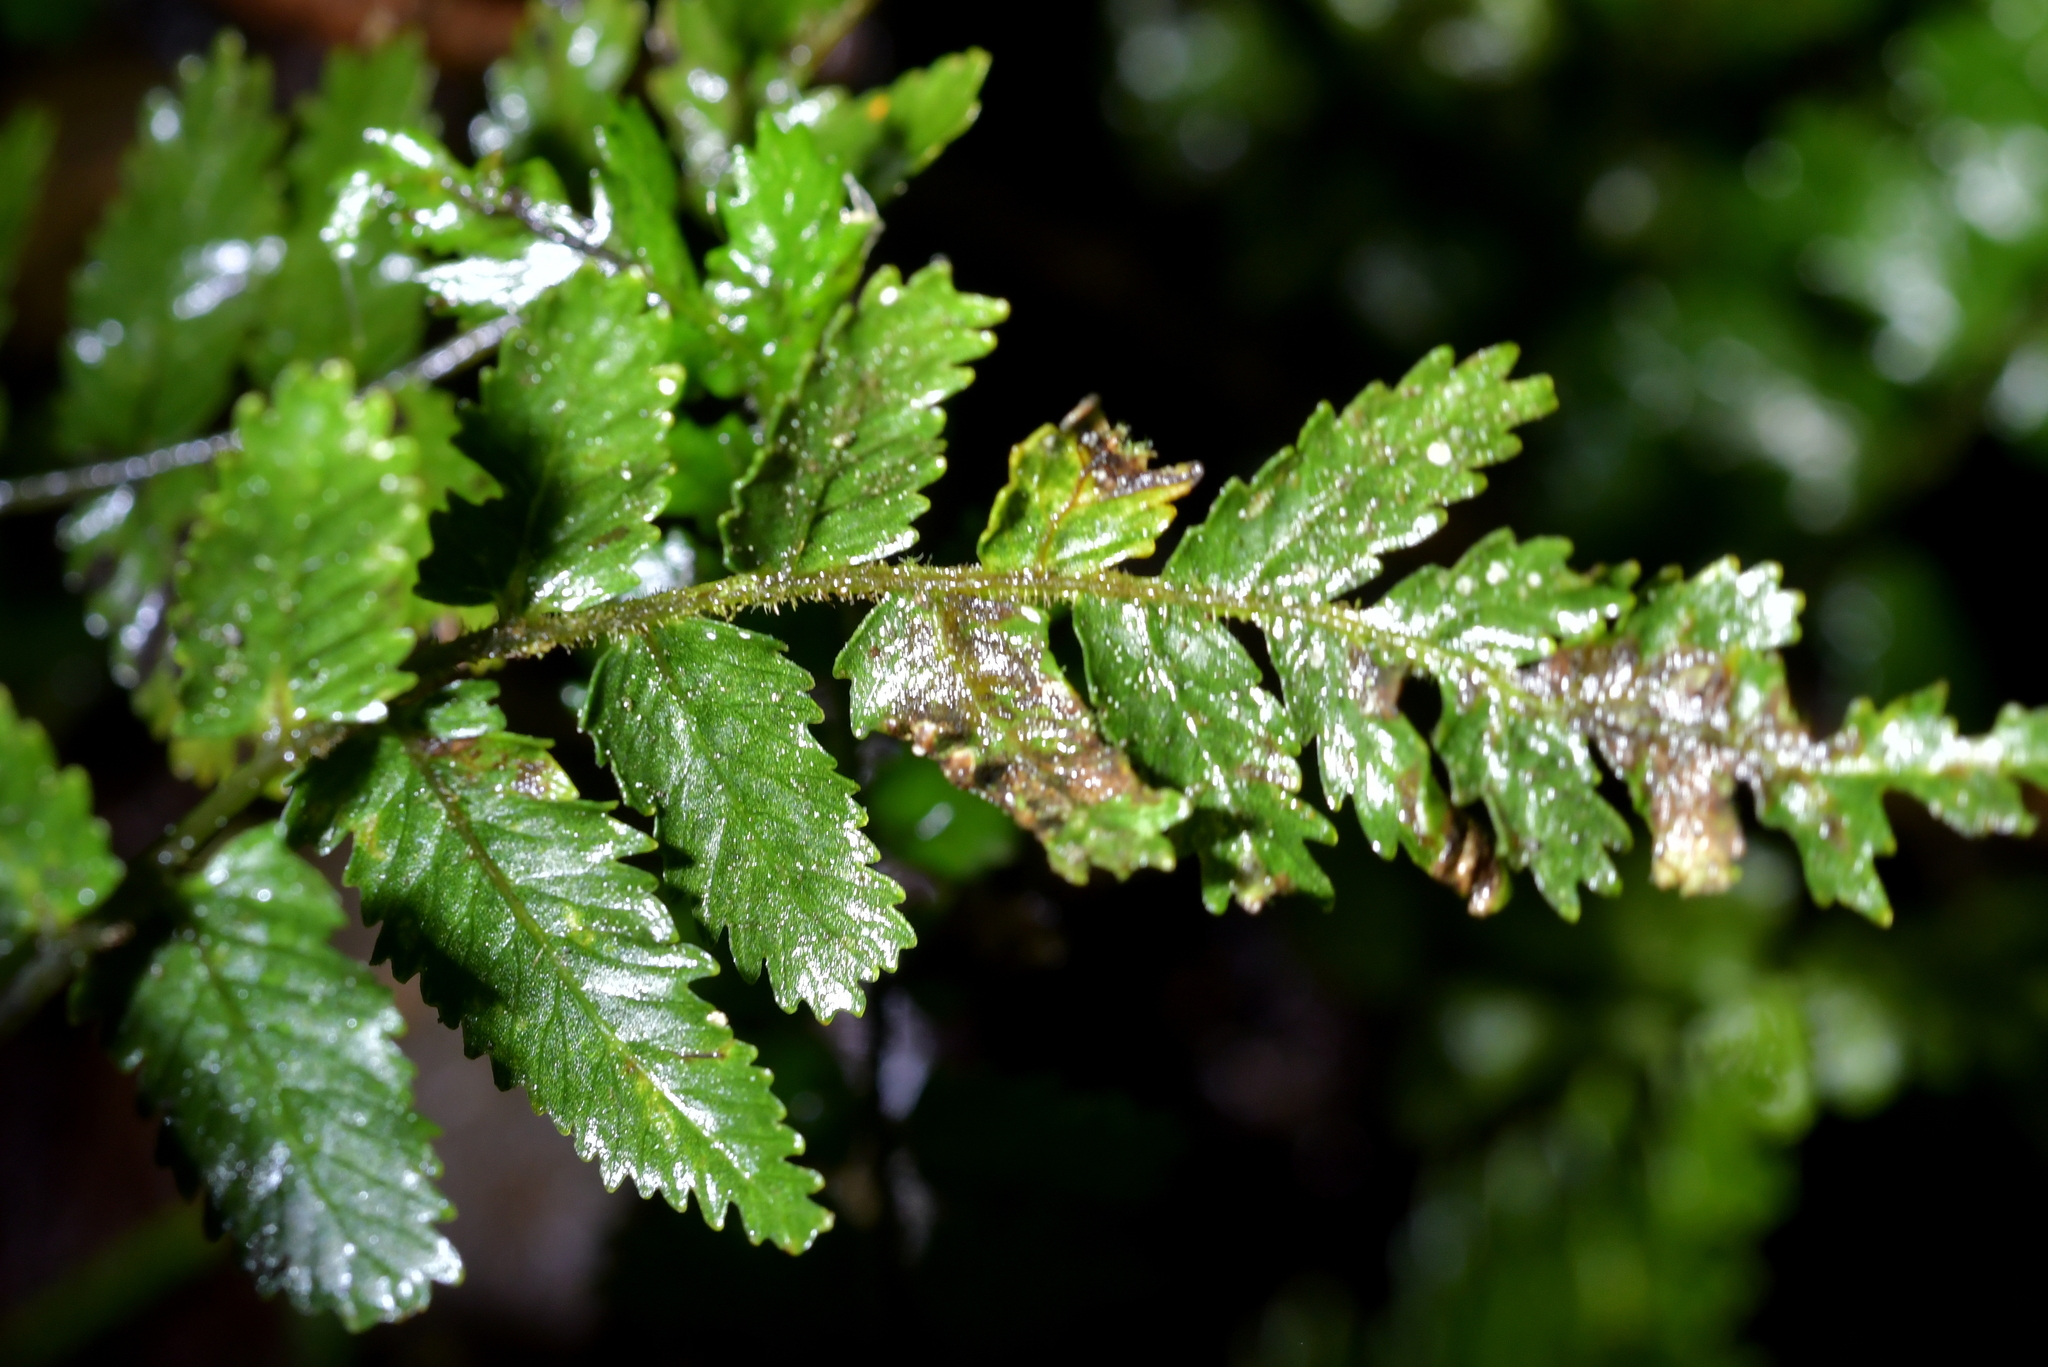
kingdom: Plantae
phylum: Tracheophyta
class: Polypodiopsida
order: Polypodiales
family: Blechnaceae
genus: Icarus
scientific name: Icarus filiformis
